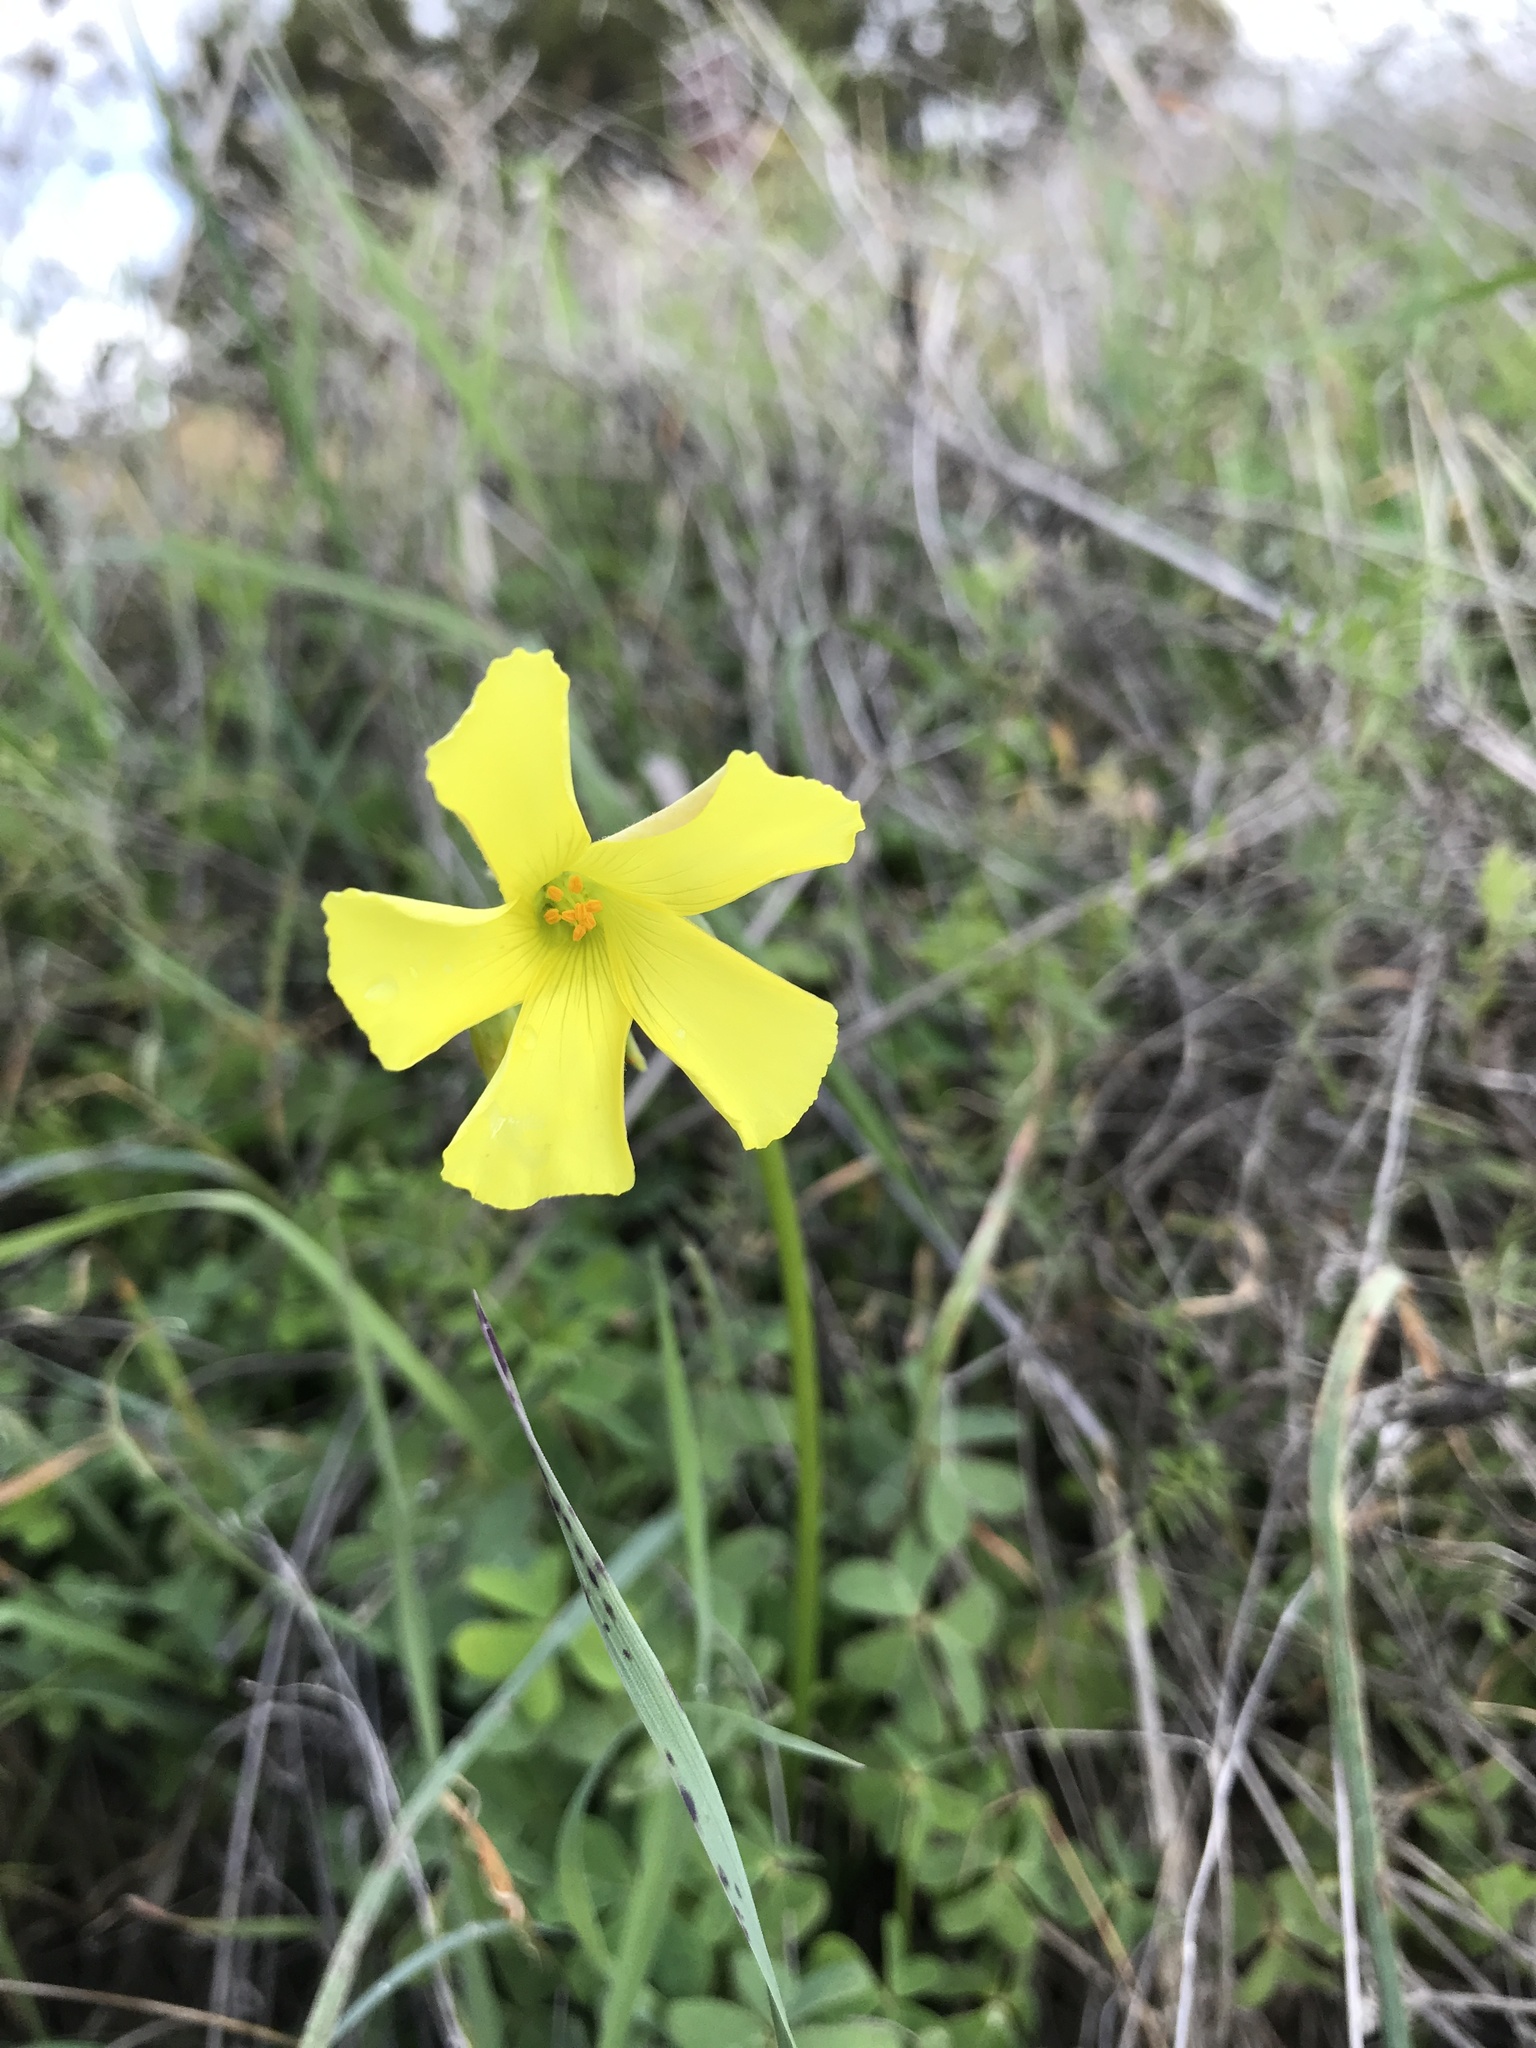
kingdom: Plantae
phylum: Tracheophyta
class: Magnoliopsida
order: Oxalidales
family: Oxalidaceae
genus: Oxalis
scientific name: Oxalis pes-caprae
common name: Bermuda-buttercup
